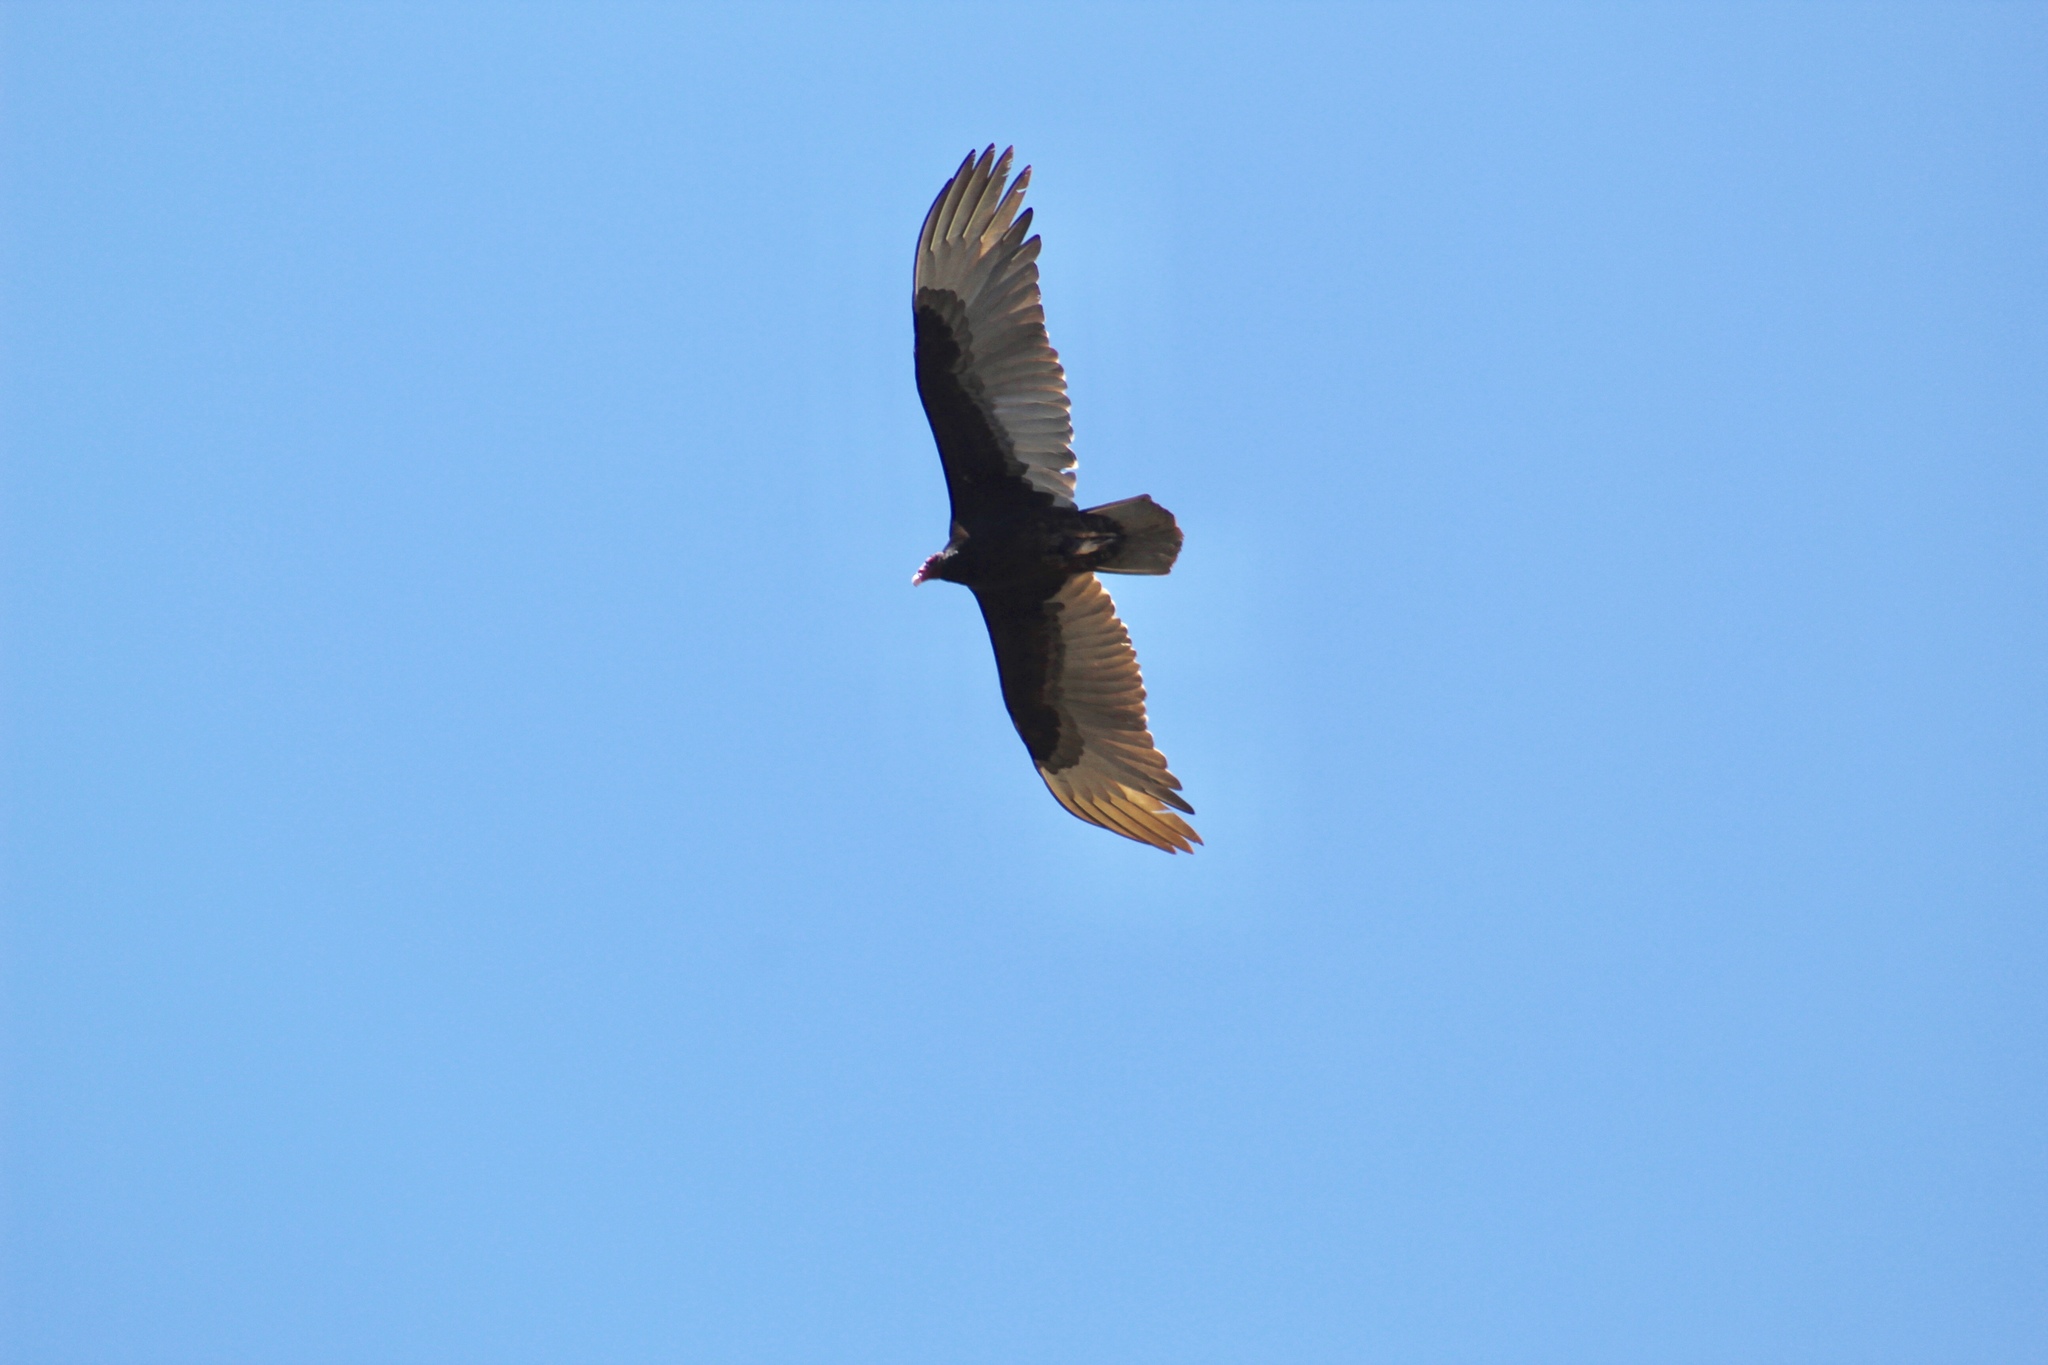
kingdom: Animalia
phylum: Chordata
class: Aves
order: Accipitriformes
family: Cathartidae
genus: Cathartes
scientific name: Cathartes aura
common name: Turkey vulture
